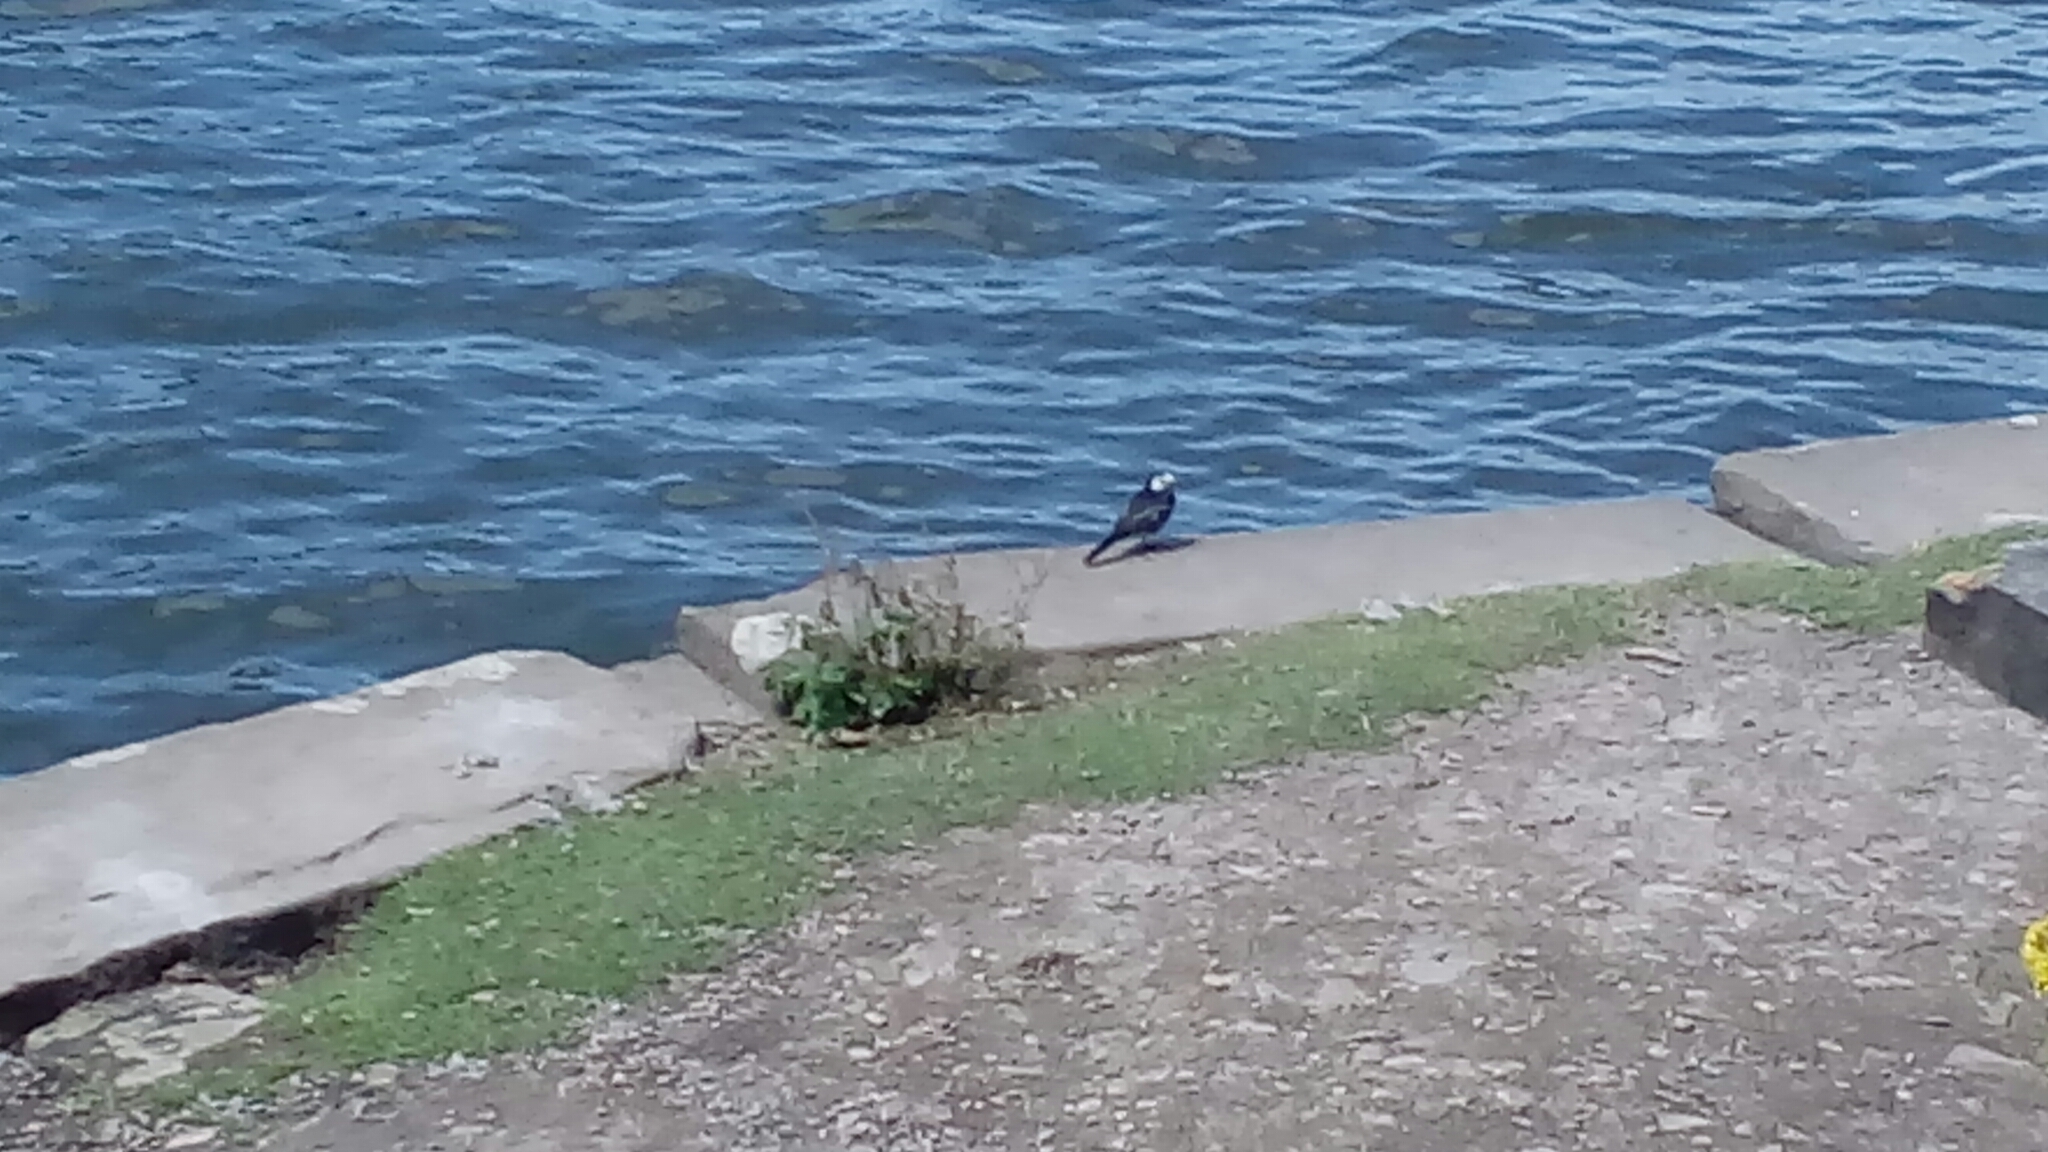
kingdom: Animalia
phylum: Chordata
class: Aves
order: Passeriformes
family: Motacillidae
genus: Motacilla
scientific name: Motacilla alba
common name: White wagtail
